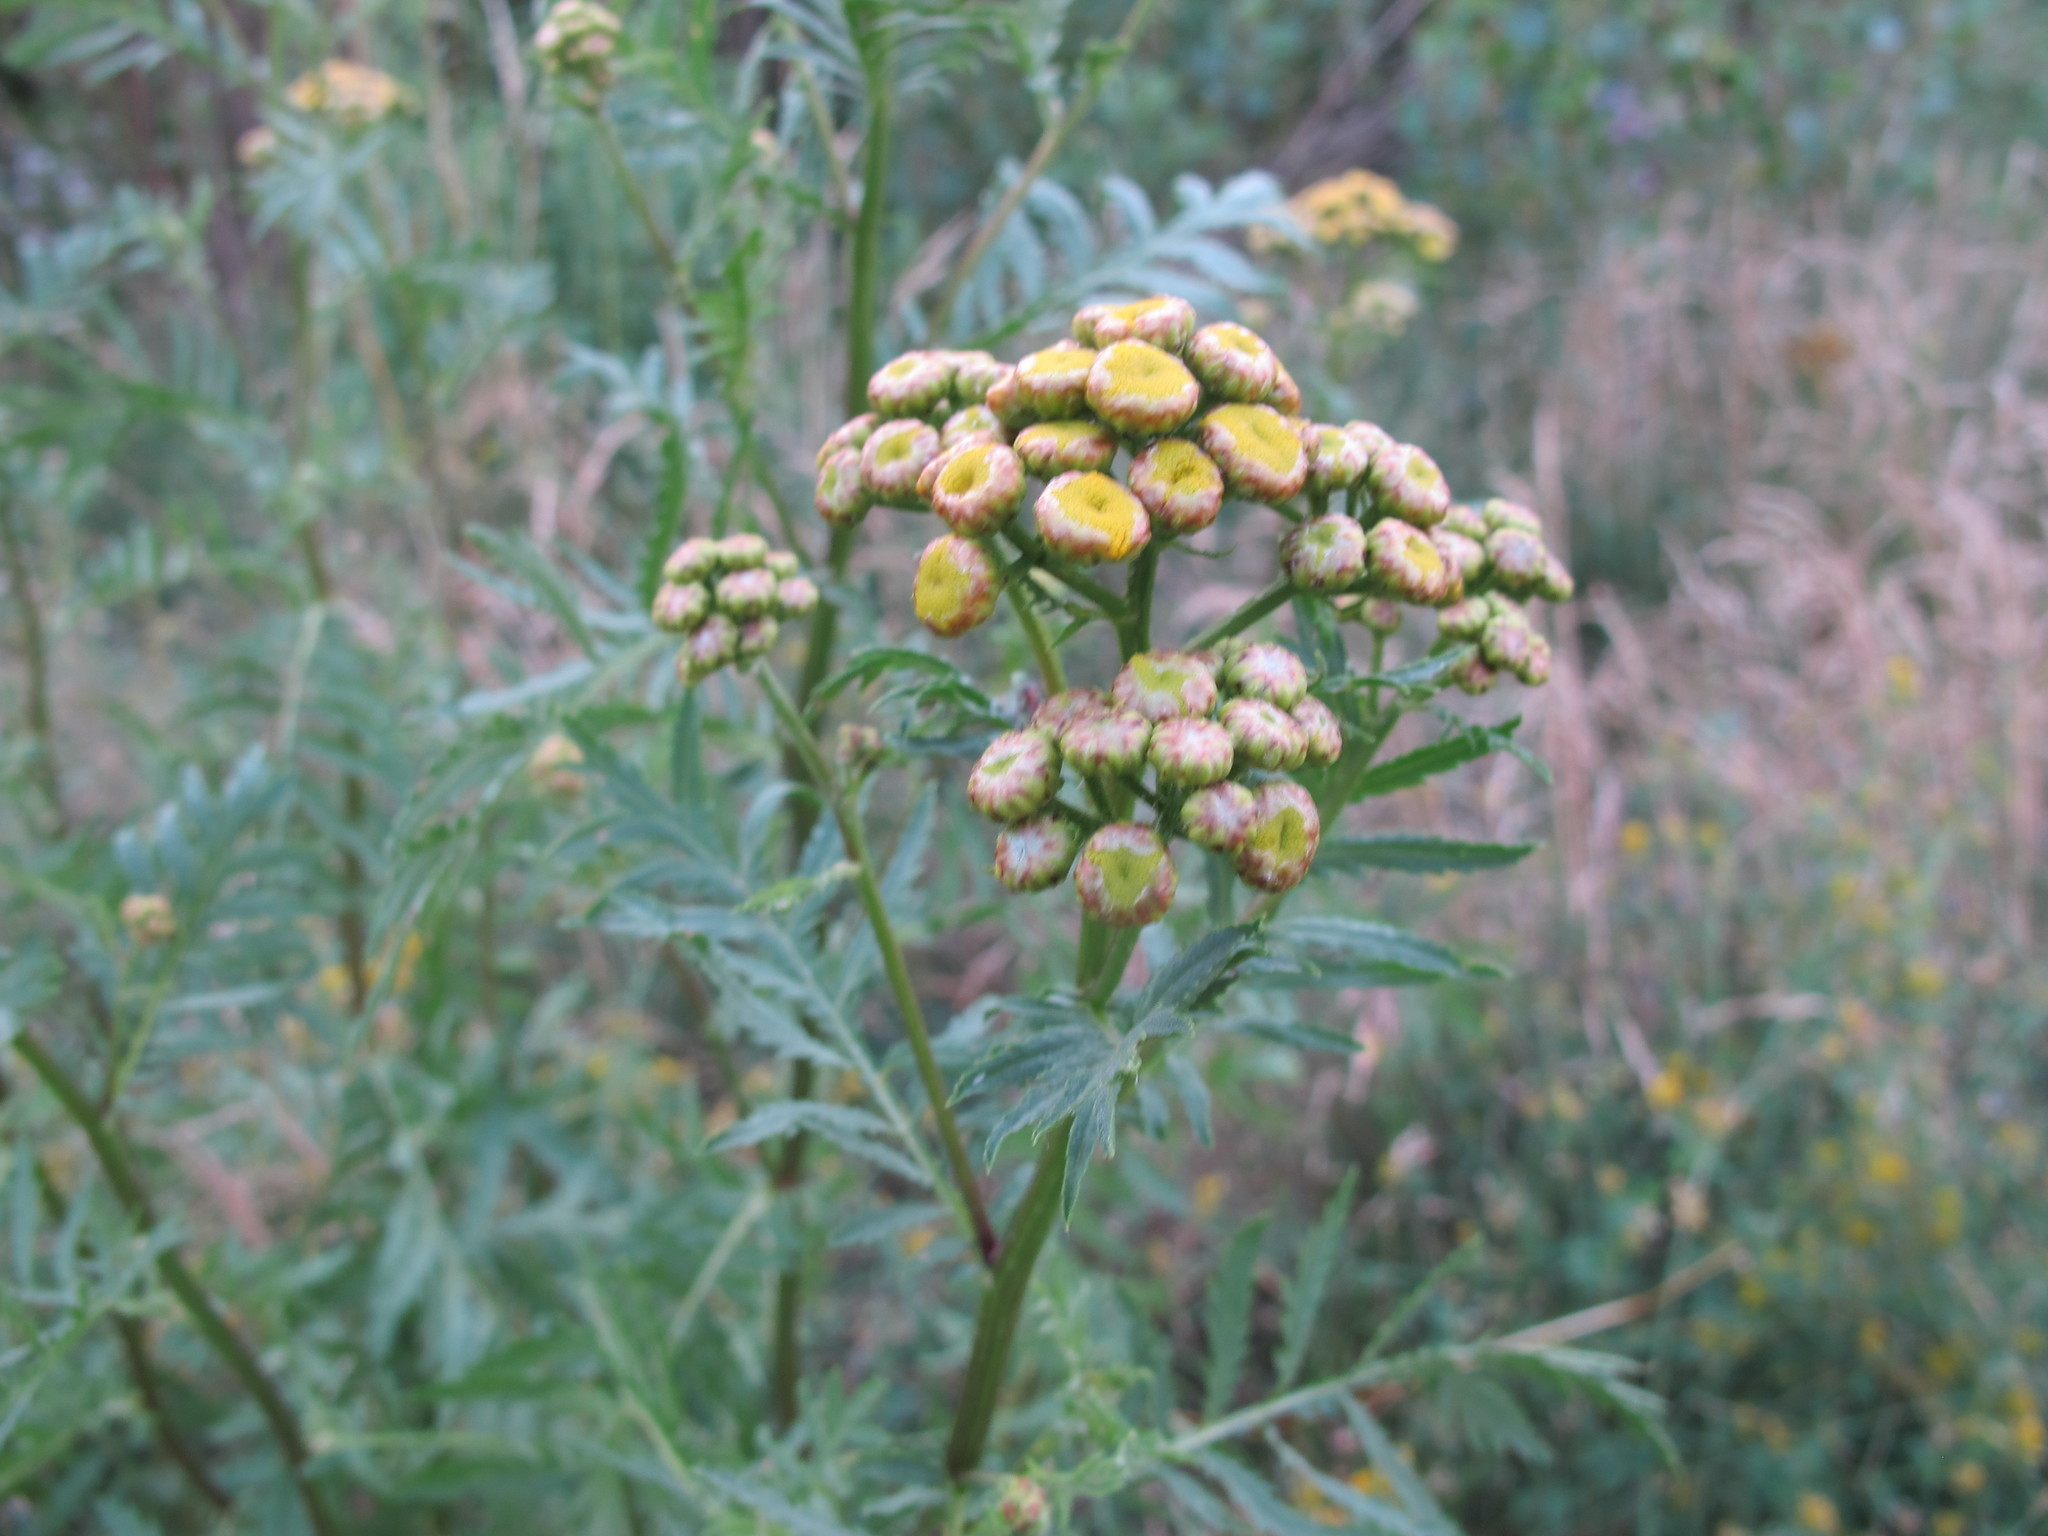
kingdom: Plantae
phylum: Tracheophyta
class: Magnoliopsida
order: Asterales
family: Asteraceae
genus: Tanacetum
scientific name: Tanacetum vulgare
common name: Common tansy
